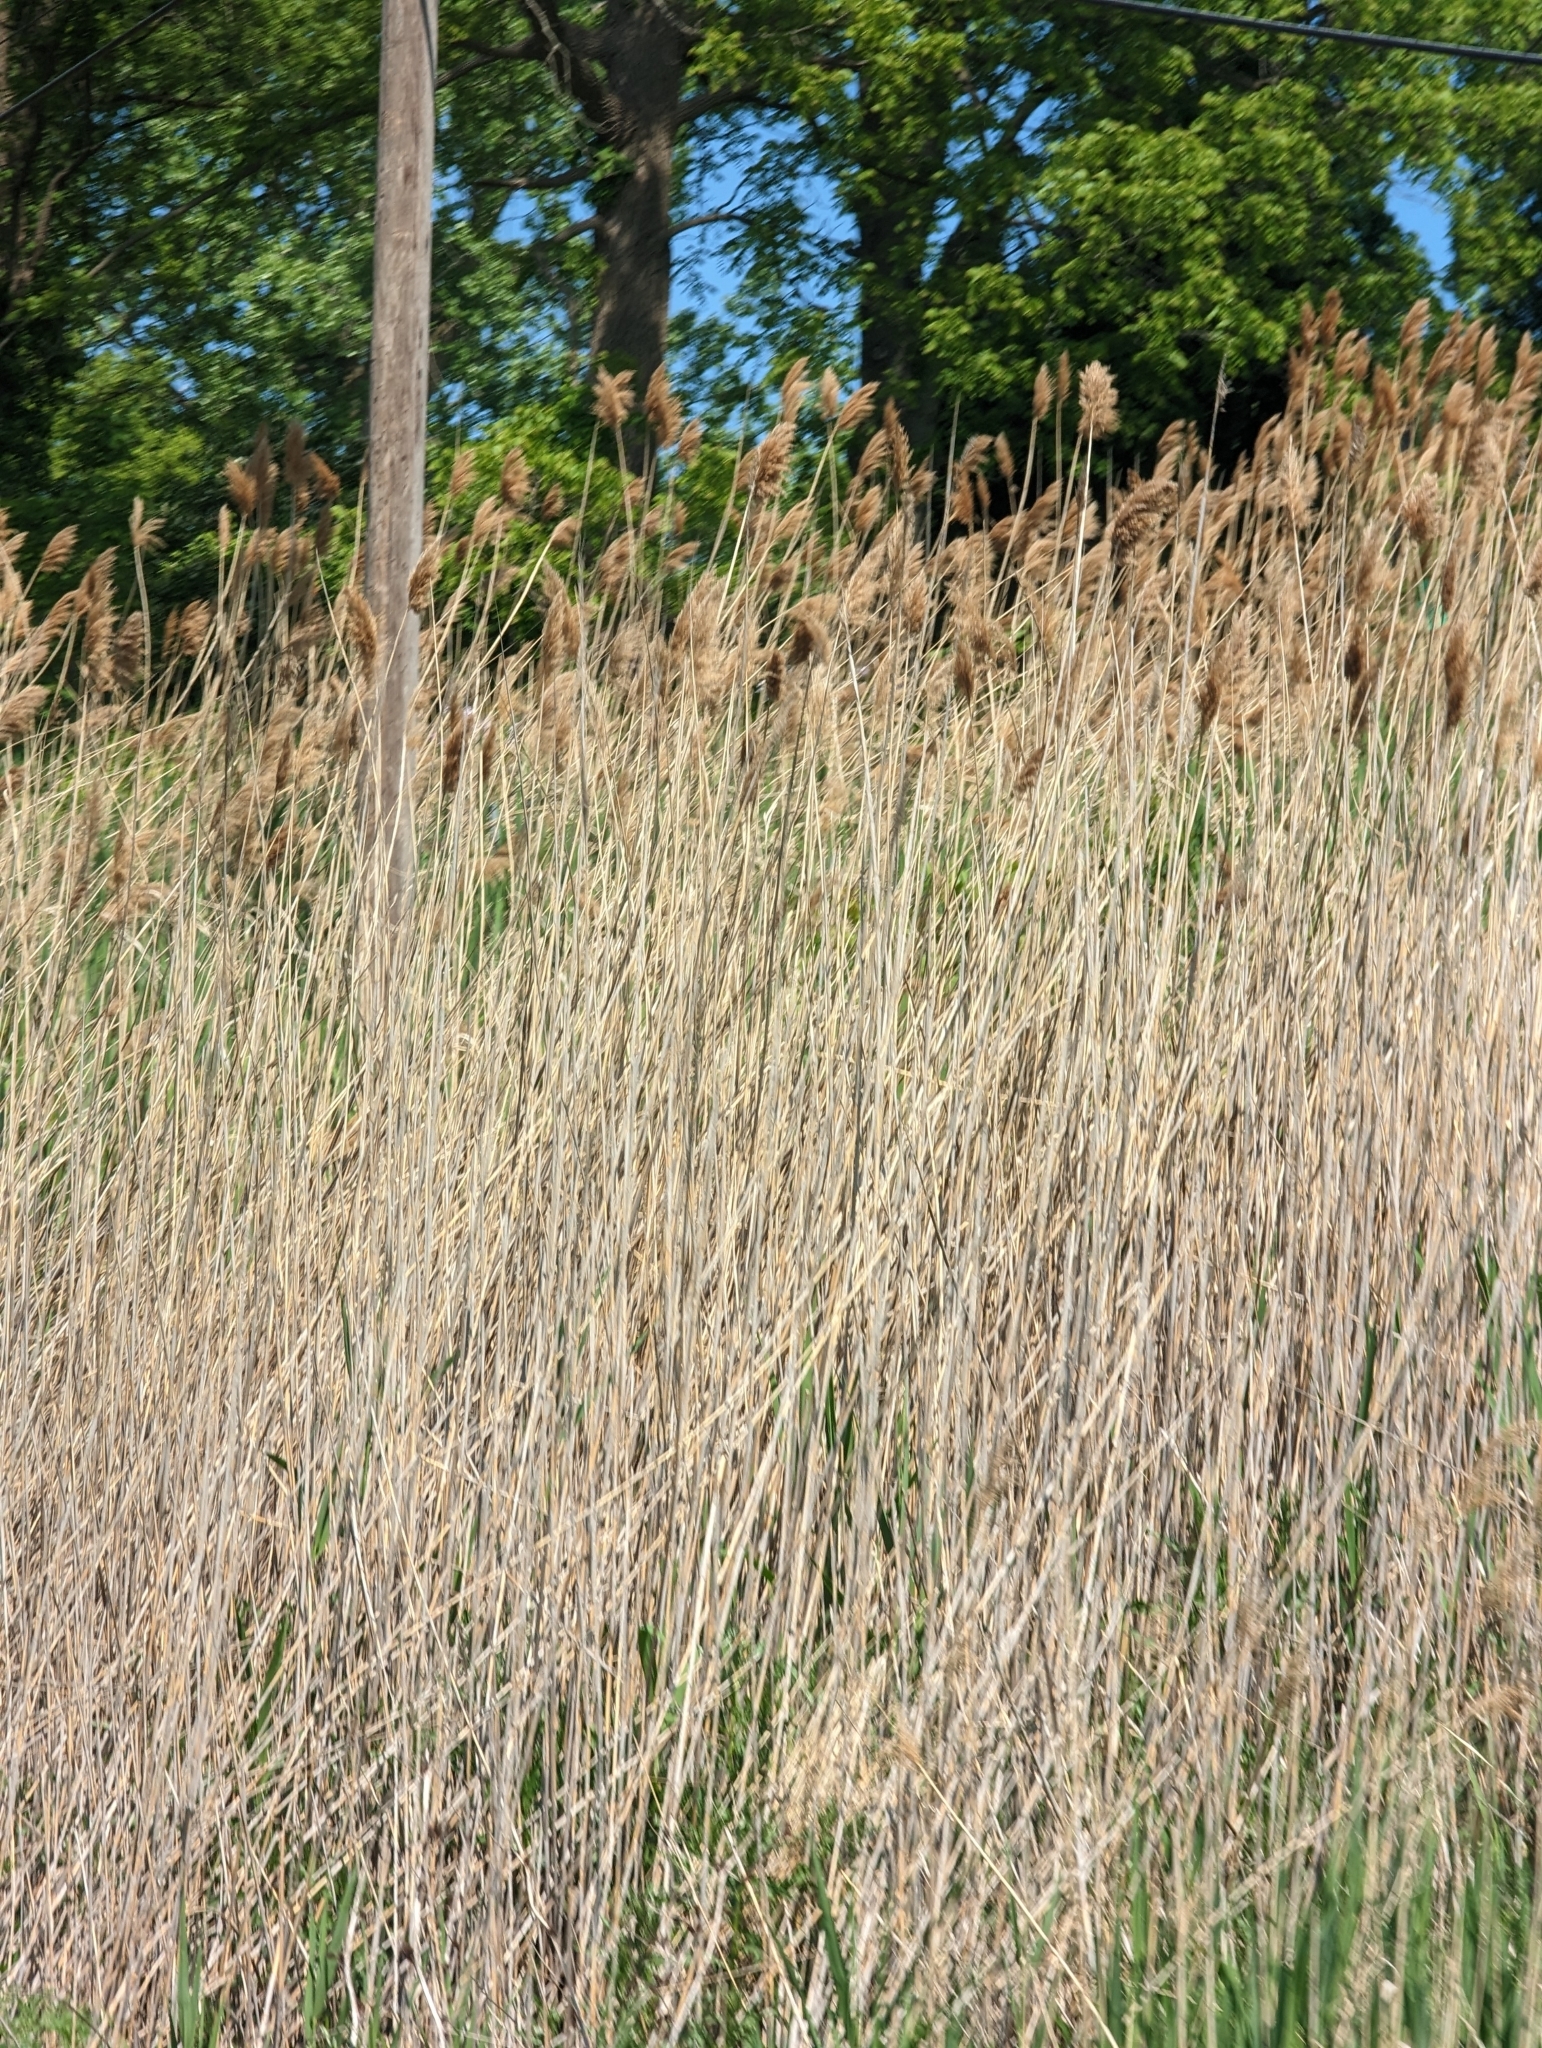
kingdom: Plantae
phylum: Tracheophyta
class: Liliopsida
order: Poales
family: Poaceae
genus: Phragmites
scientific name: Phragmites australis
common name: Common reed
